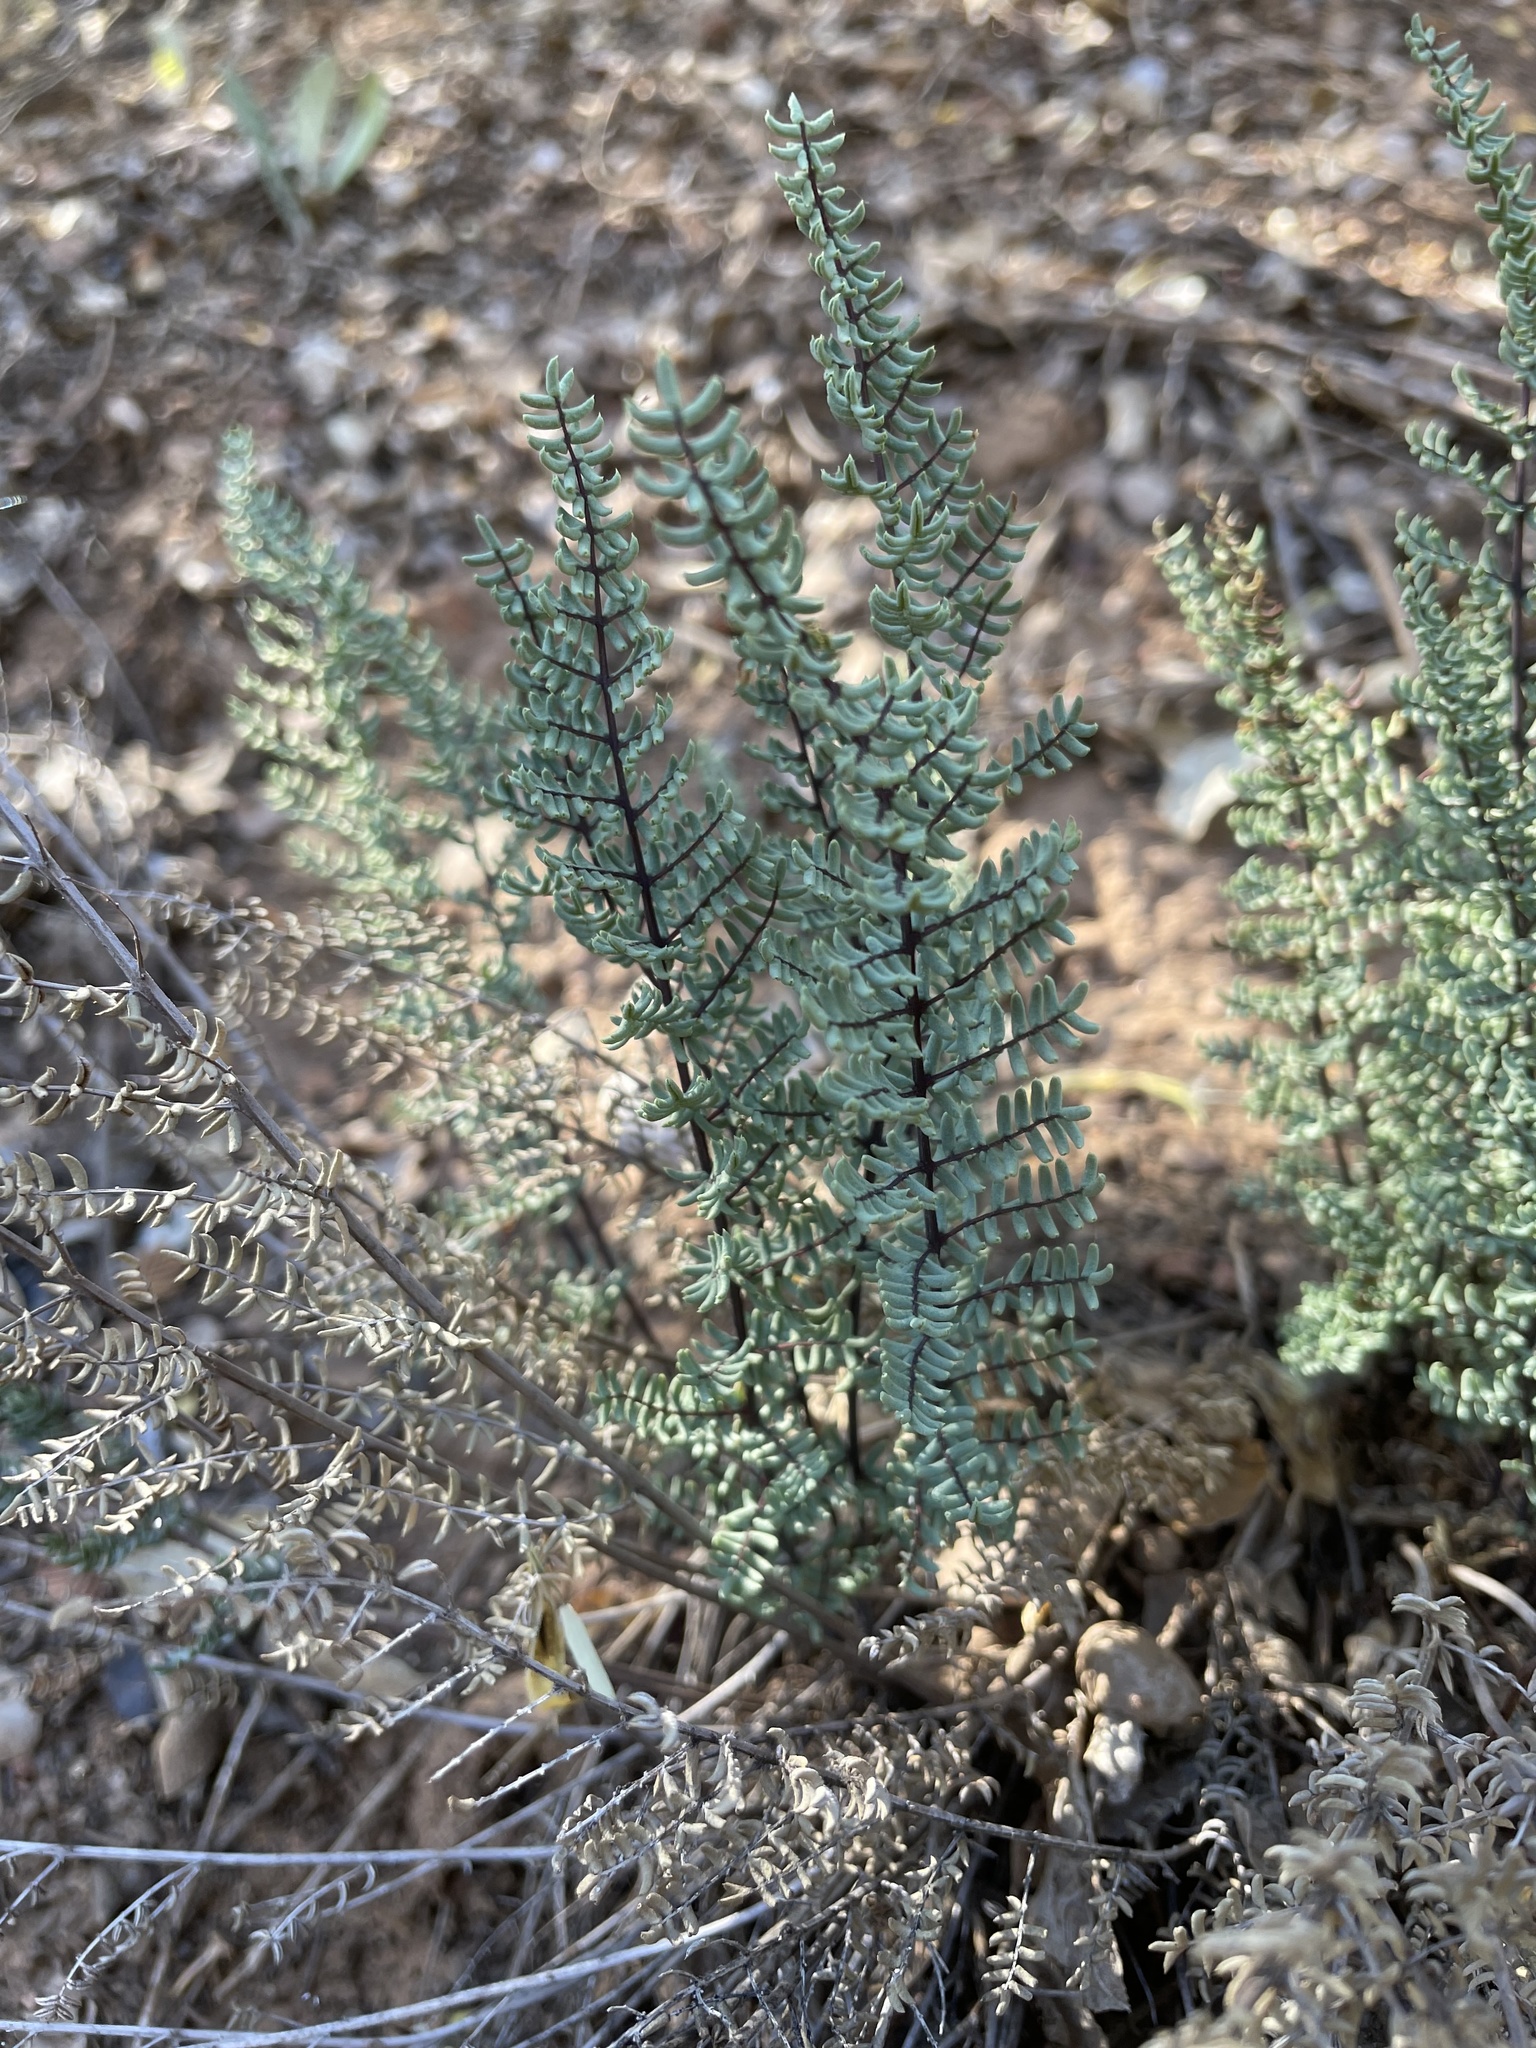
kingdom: Plantae
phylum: Tracheophyta
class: Polypodiopsida
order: Polypodiales
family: Pteridaceae
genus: Pellaea
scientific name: Pellaea mucronata
